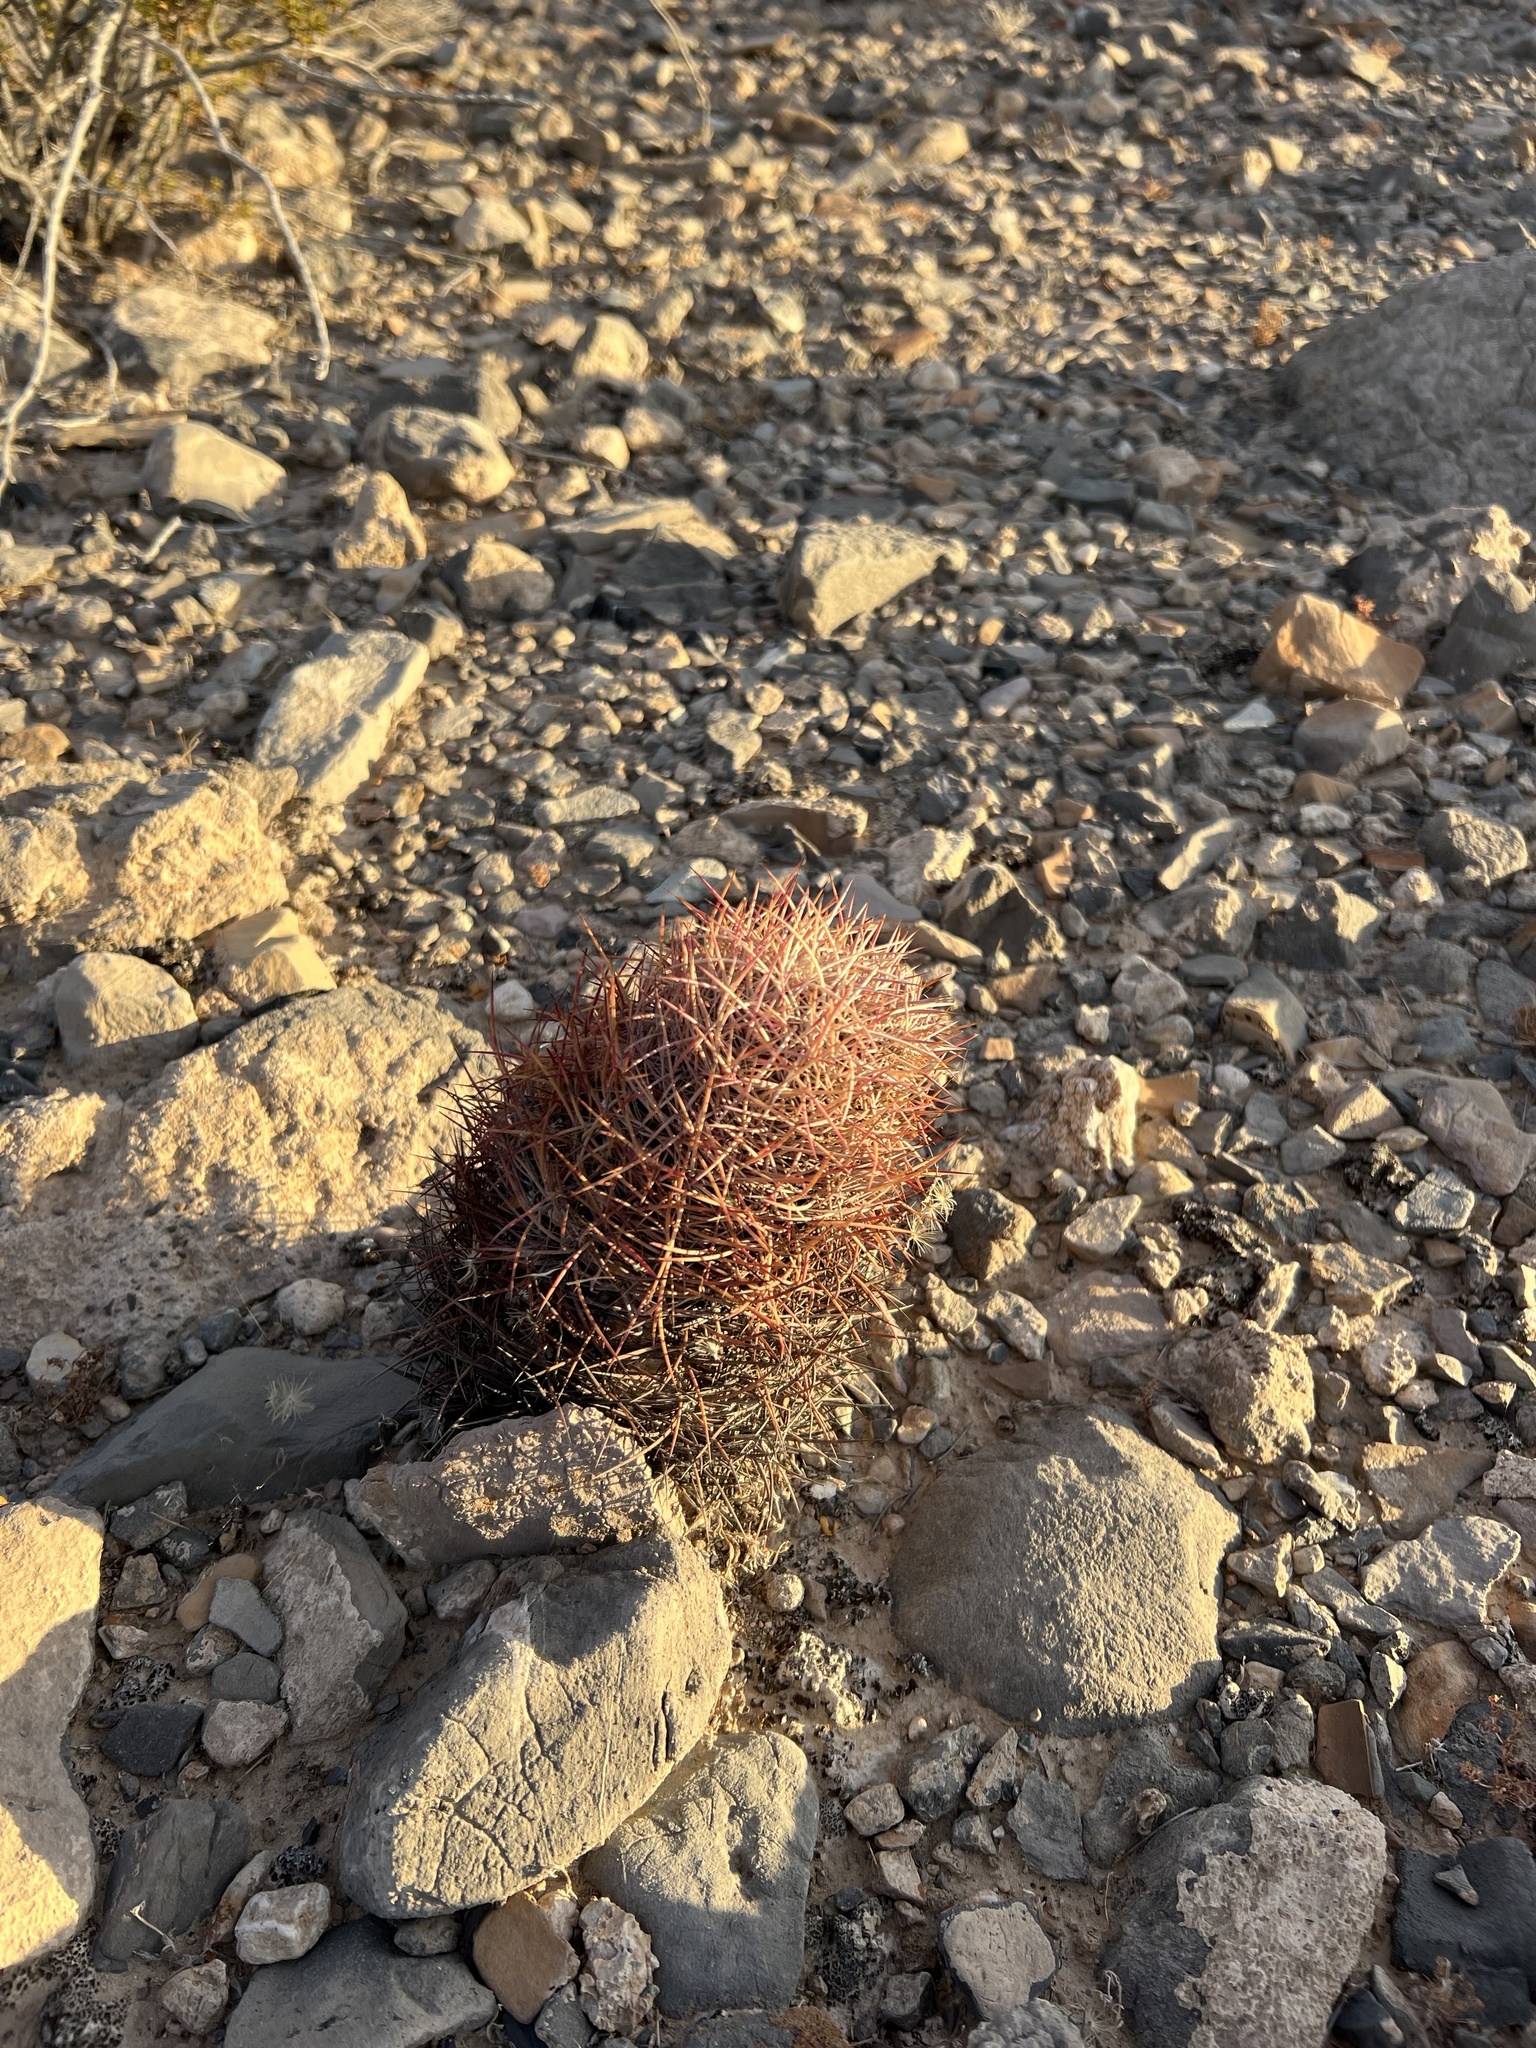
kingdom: Plantae
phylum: Tracheophyta
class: Magnoliopsida
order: Caryophyllales
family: Cactaceae
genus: Sclerocactus
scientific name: Sclerocactus johnsonii
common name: Eight-spine fishhook cactus
